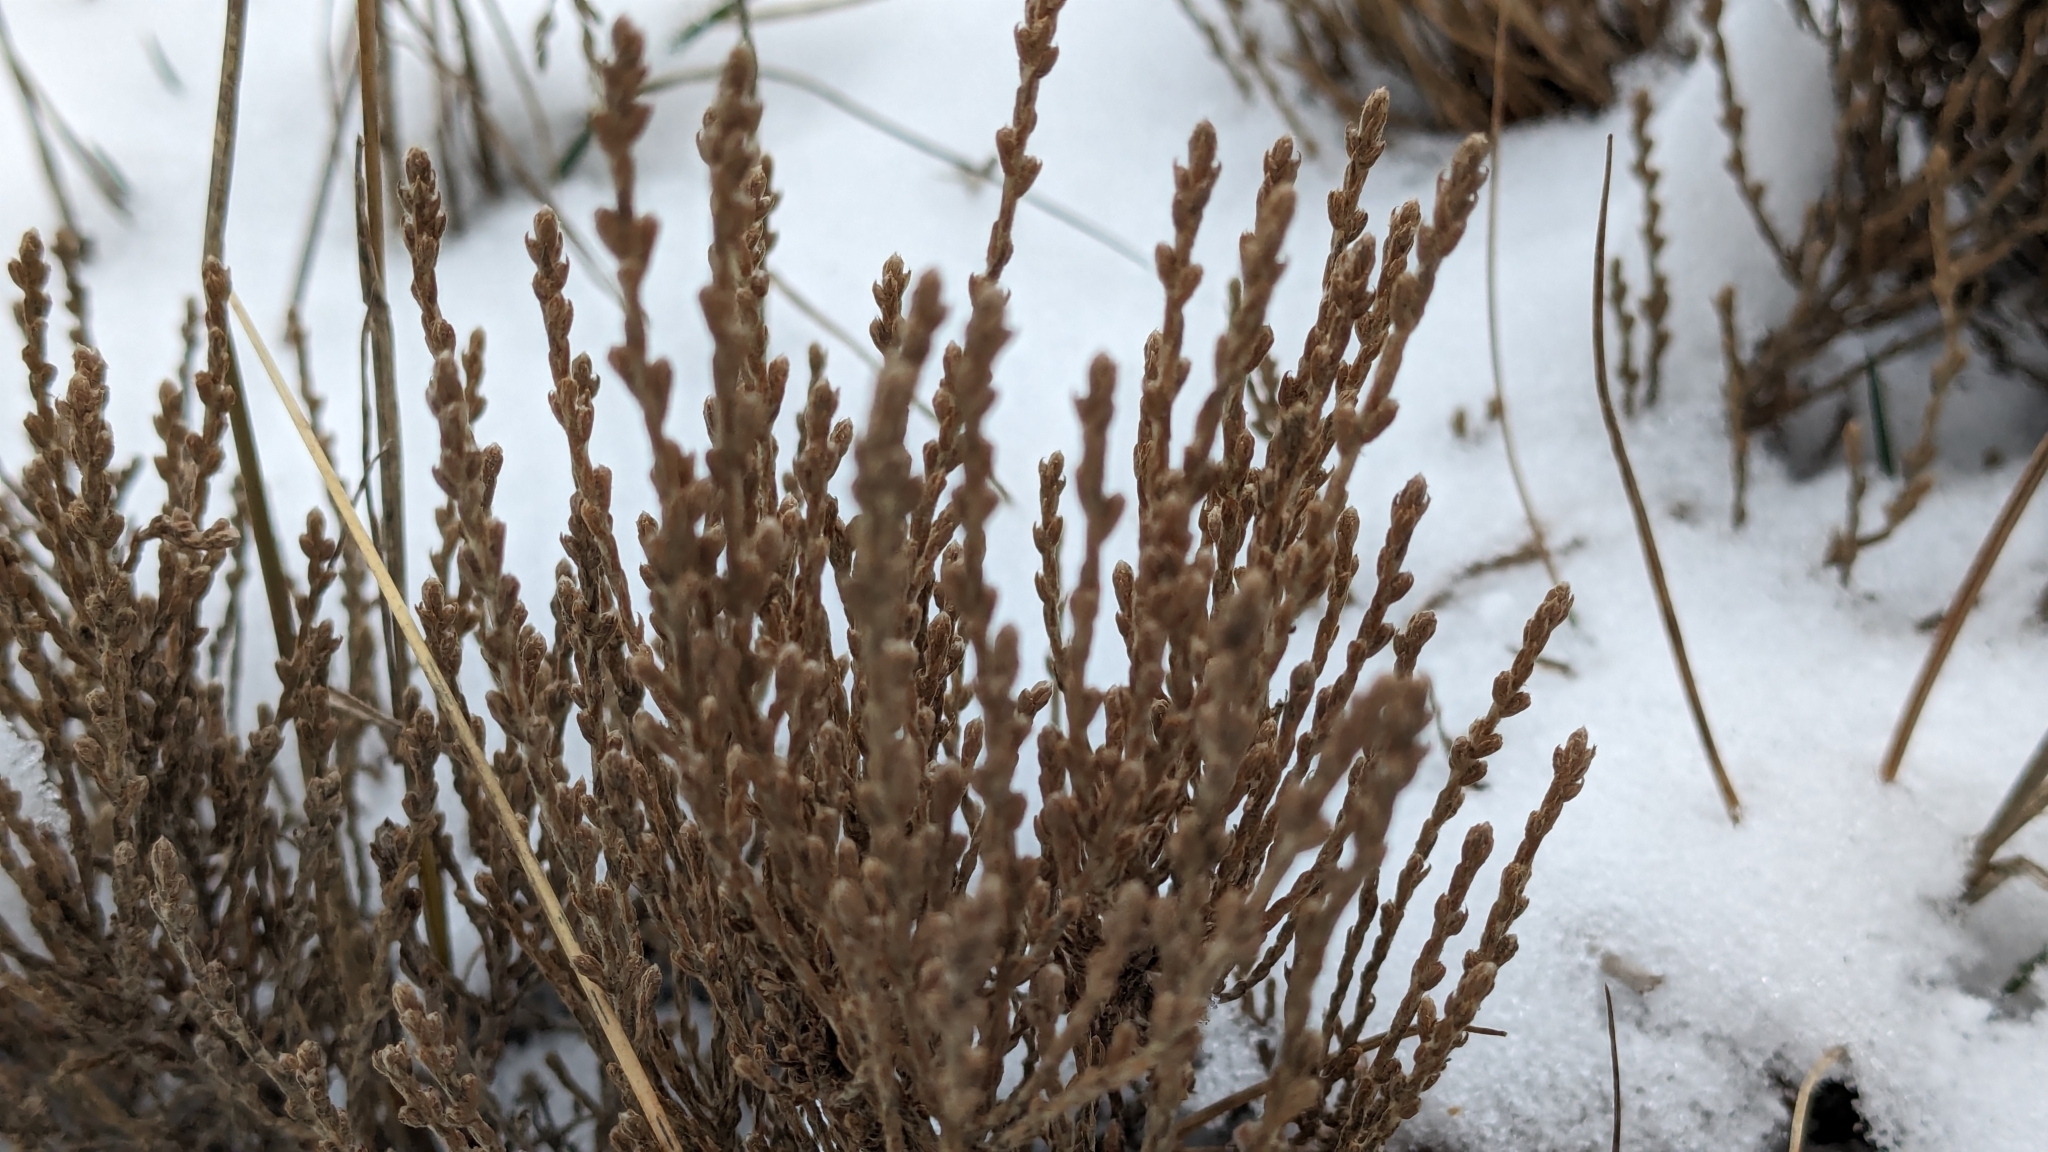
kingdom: Plantae
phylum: Tracheophyta
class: Magnoliopsida
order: Malvales
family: Cistaceae
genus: Hudsonia
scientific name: Hudsonia tomentosa
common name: Beach-heath
